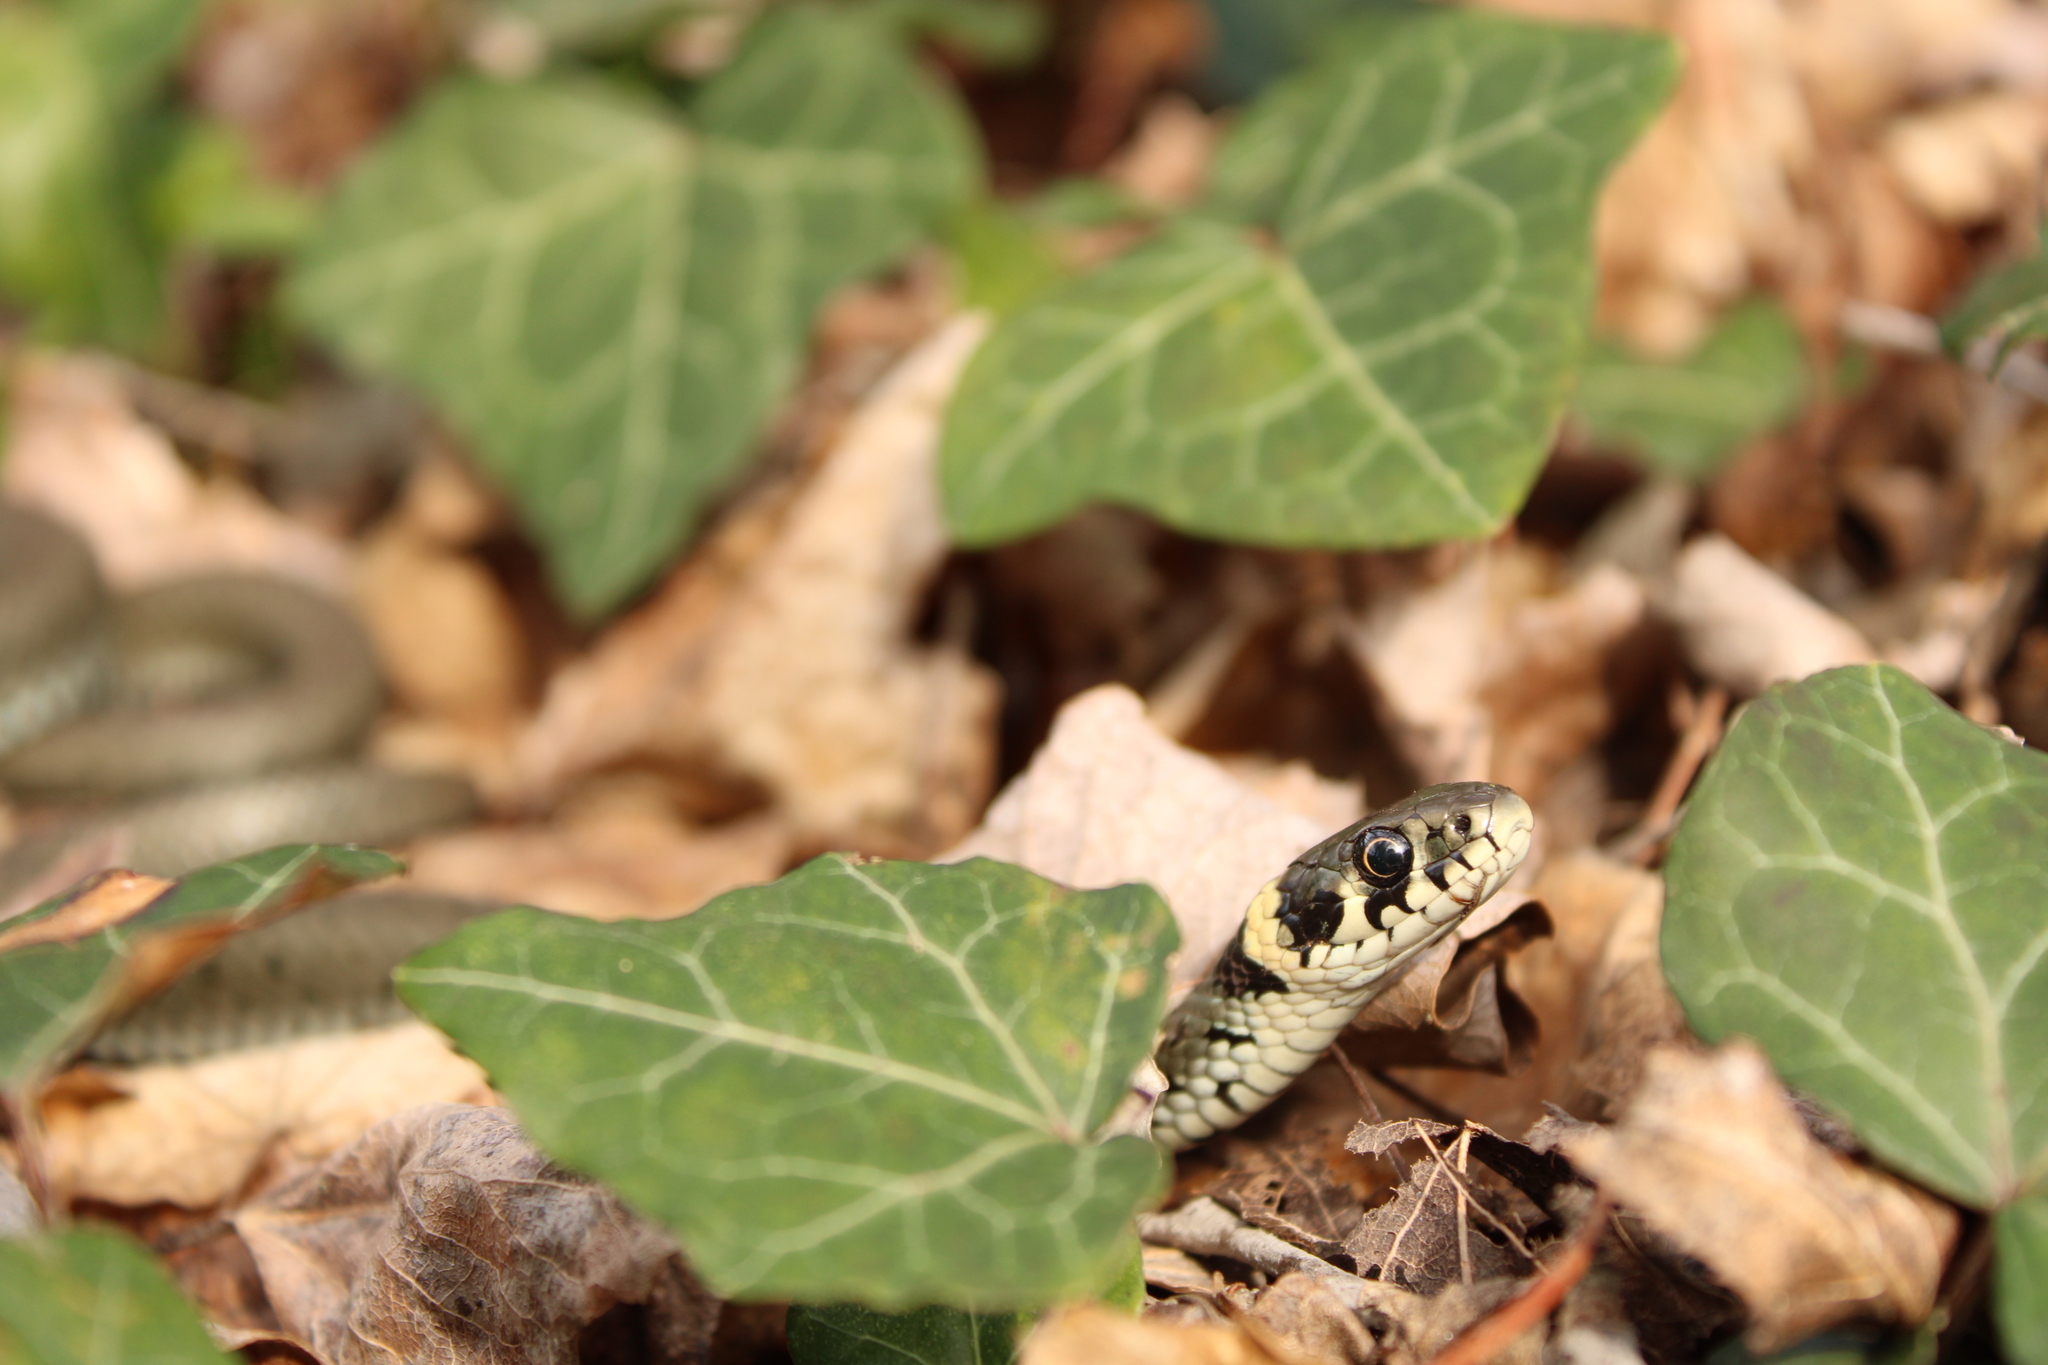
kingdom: Animalia
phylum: Chordata
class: Squamata
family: Colubridae
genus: Natrix
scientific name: Natrix natrix
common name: Grass snake
